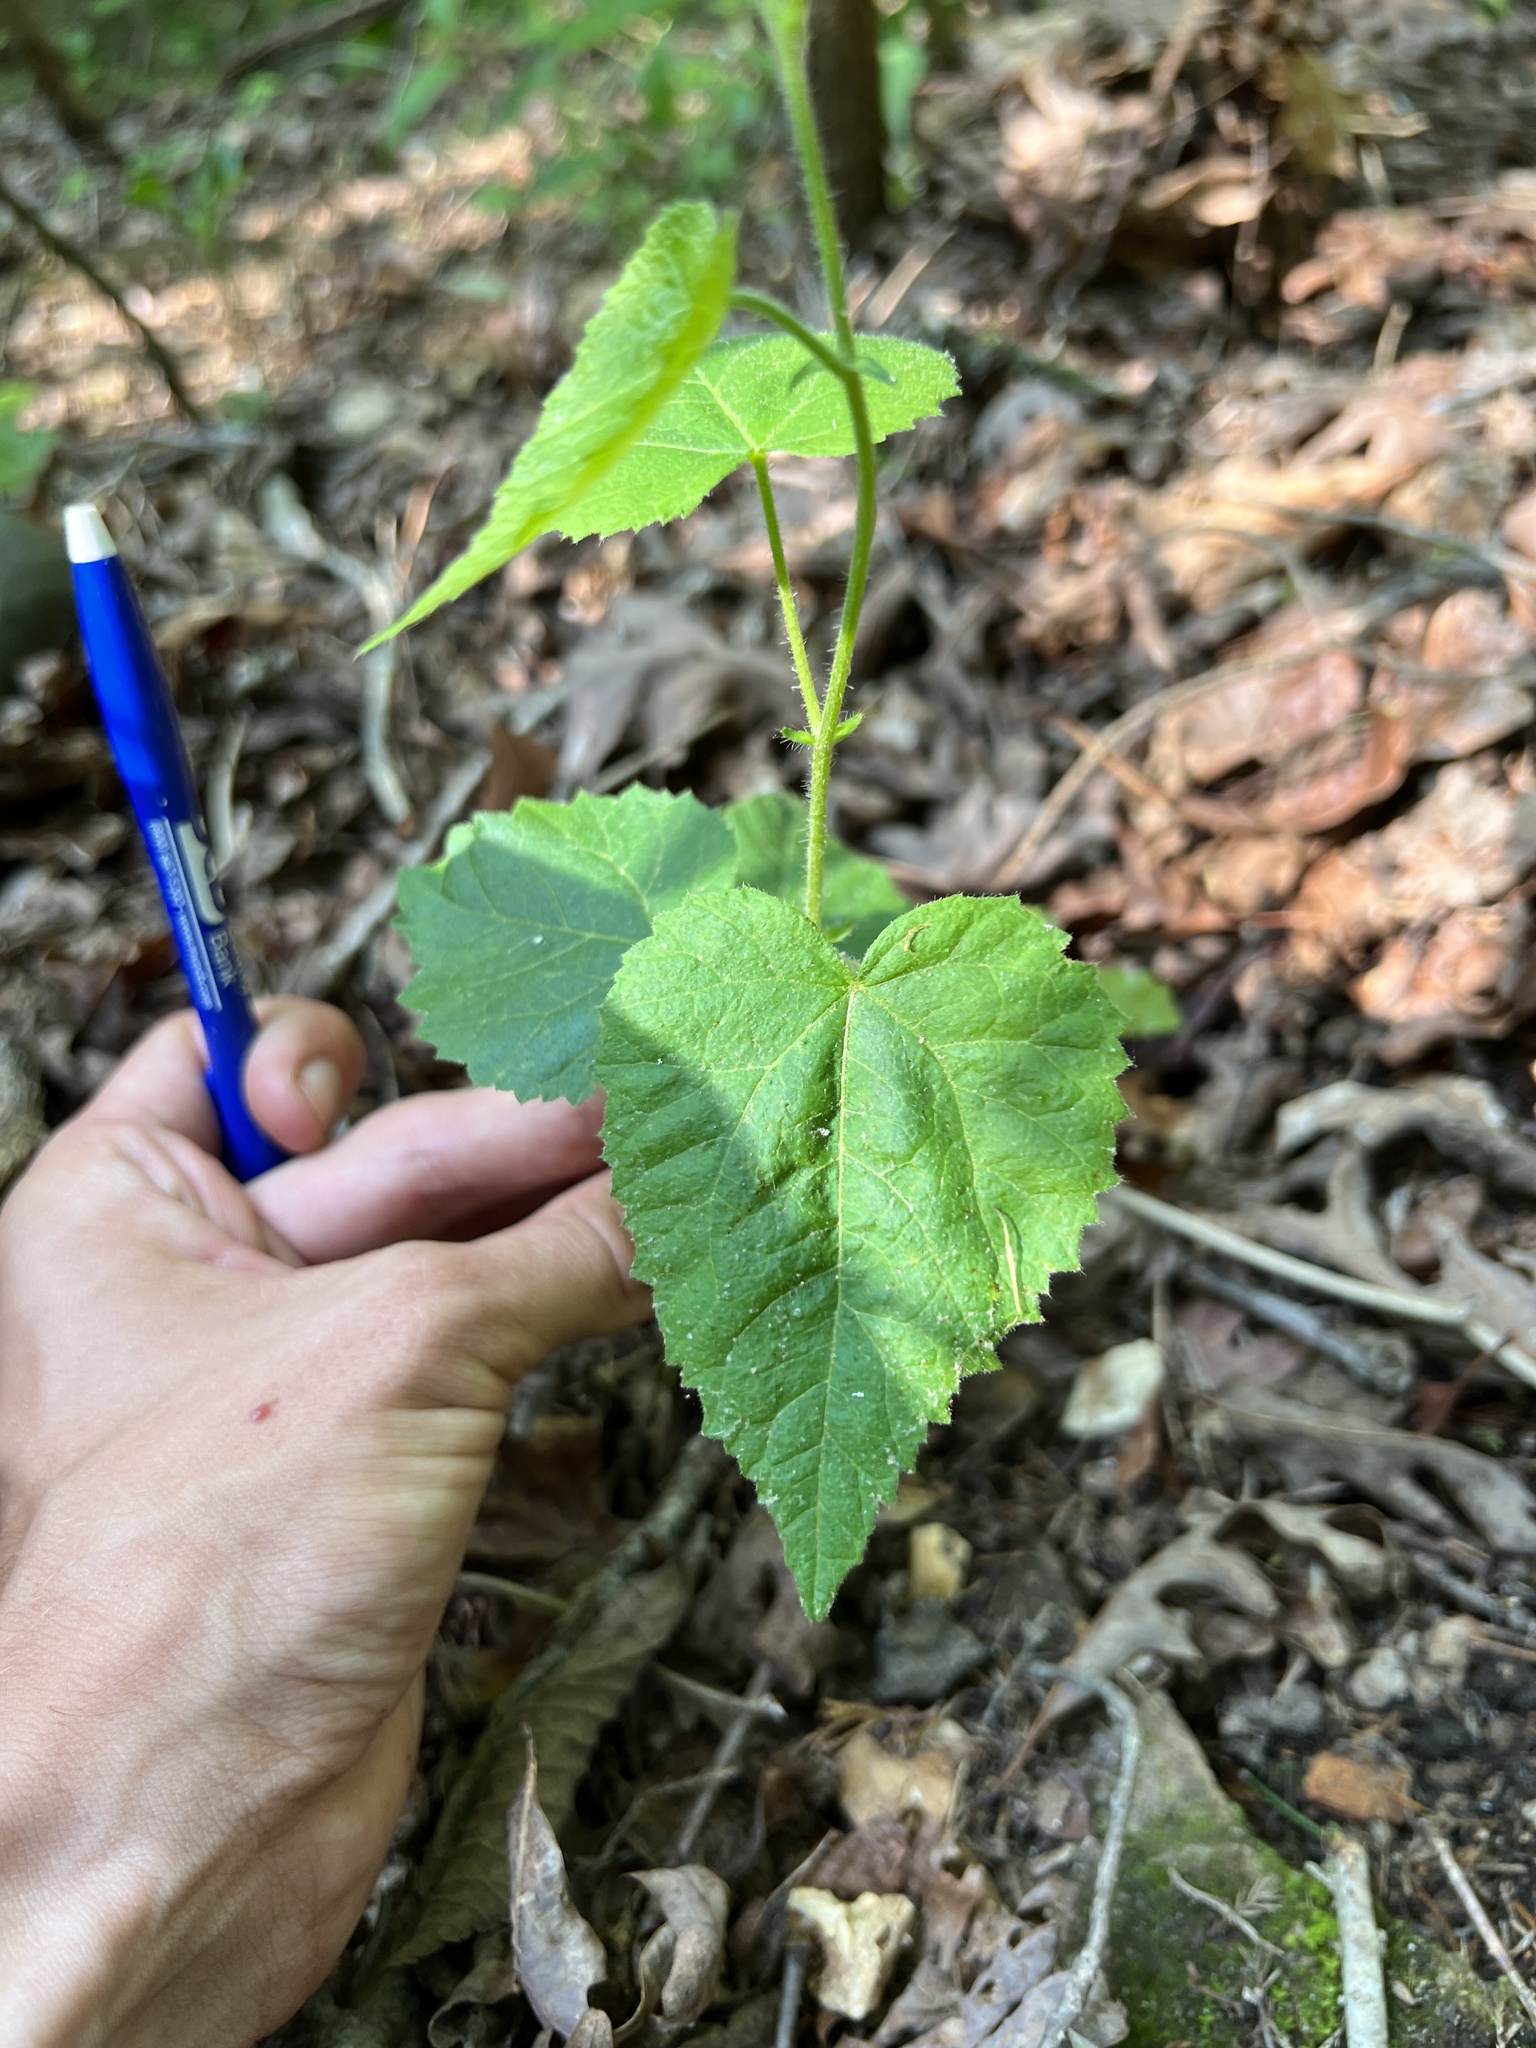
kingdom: Plantae
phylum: Tracheophyta
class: Magnoliopsida
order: Malpighiales
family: Euphorbiaceae
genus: Tragia
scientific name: Tragia cordata
